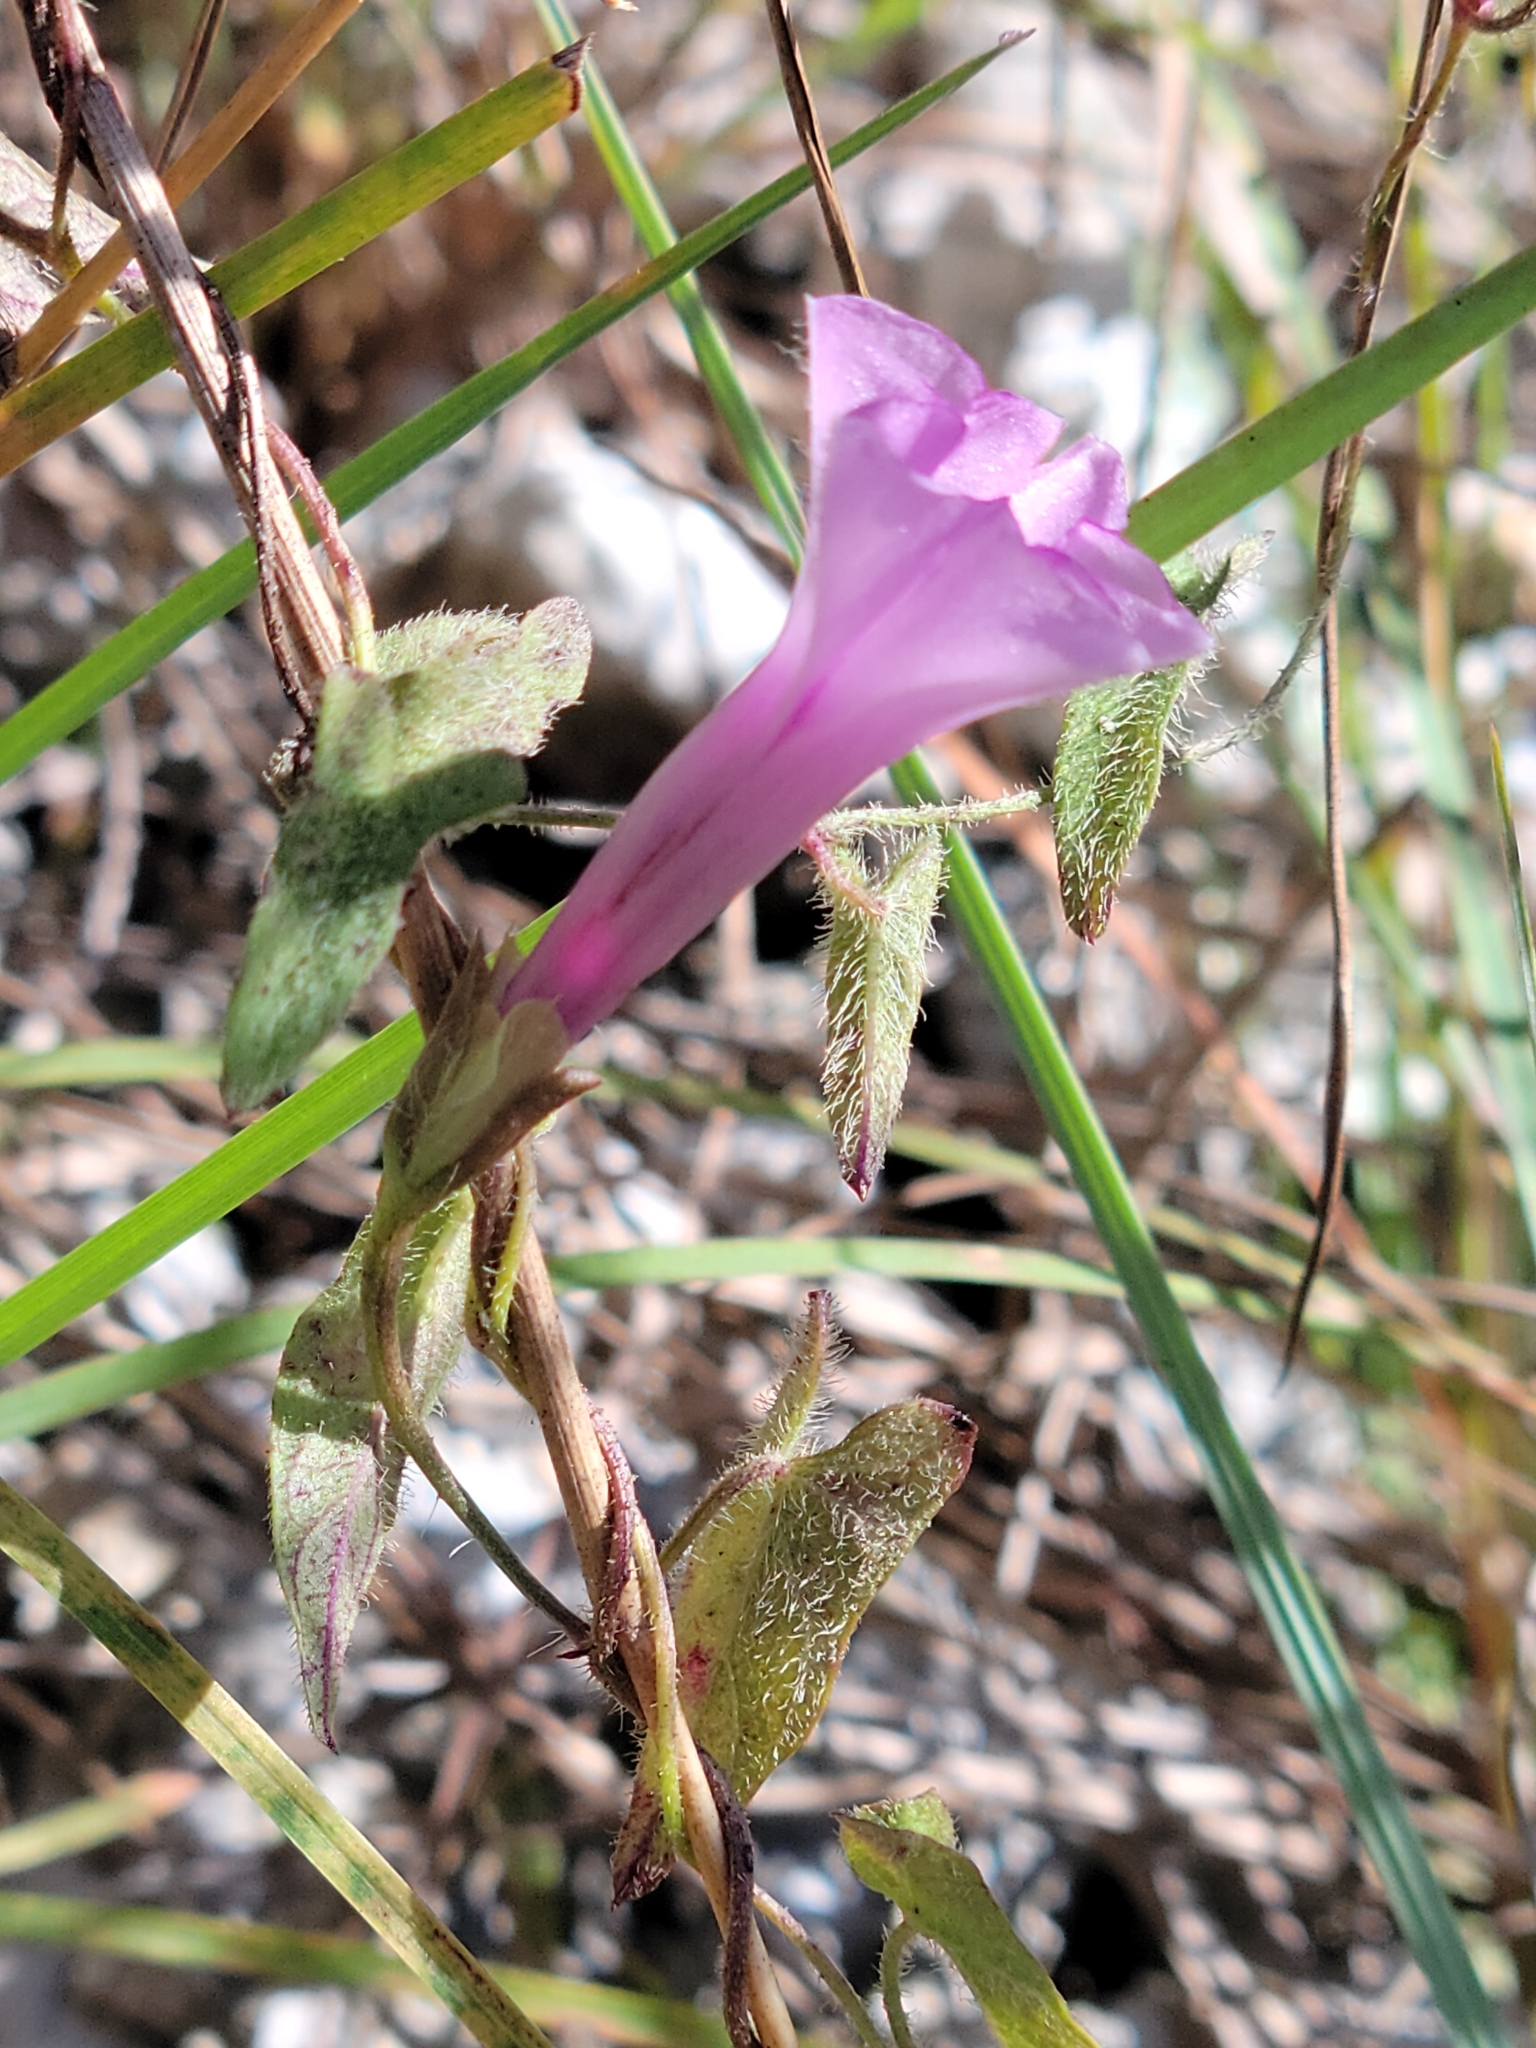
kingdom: Plantae
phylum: Tracheophyta
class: Magnoliopsida
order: Solanales
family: Convolvulaceae
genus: Ipomoea
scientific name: Ipomoea tenuissima
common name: Rockland morning glory
